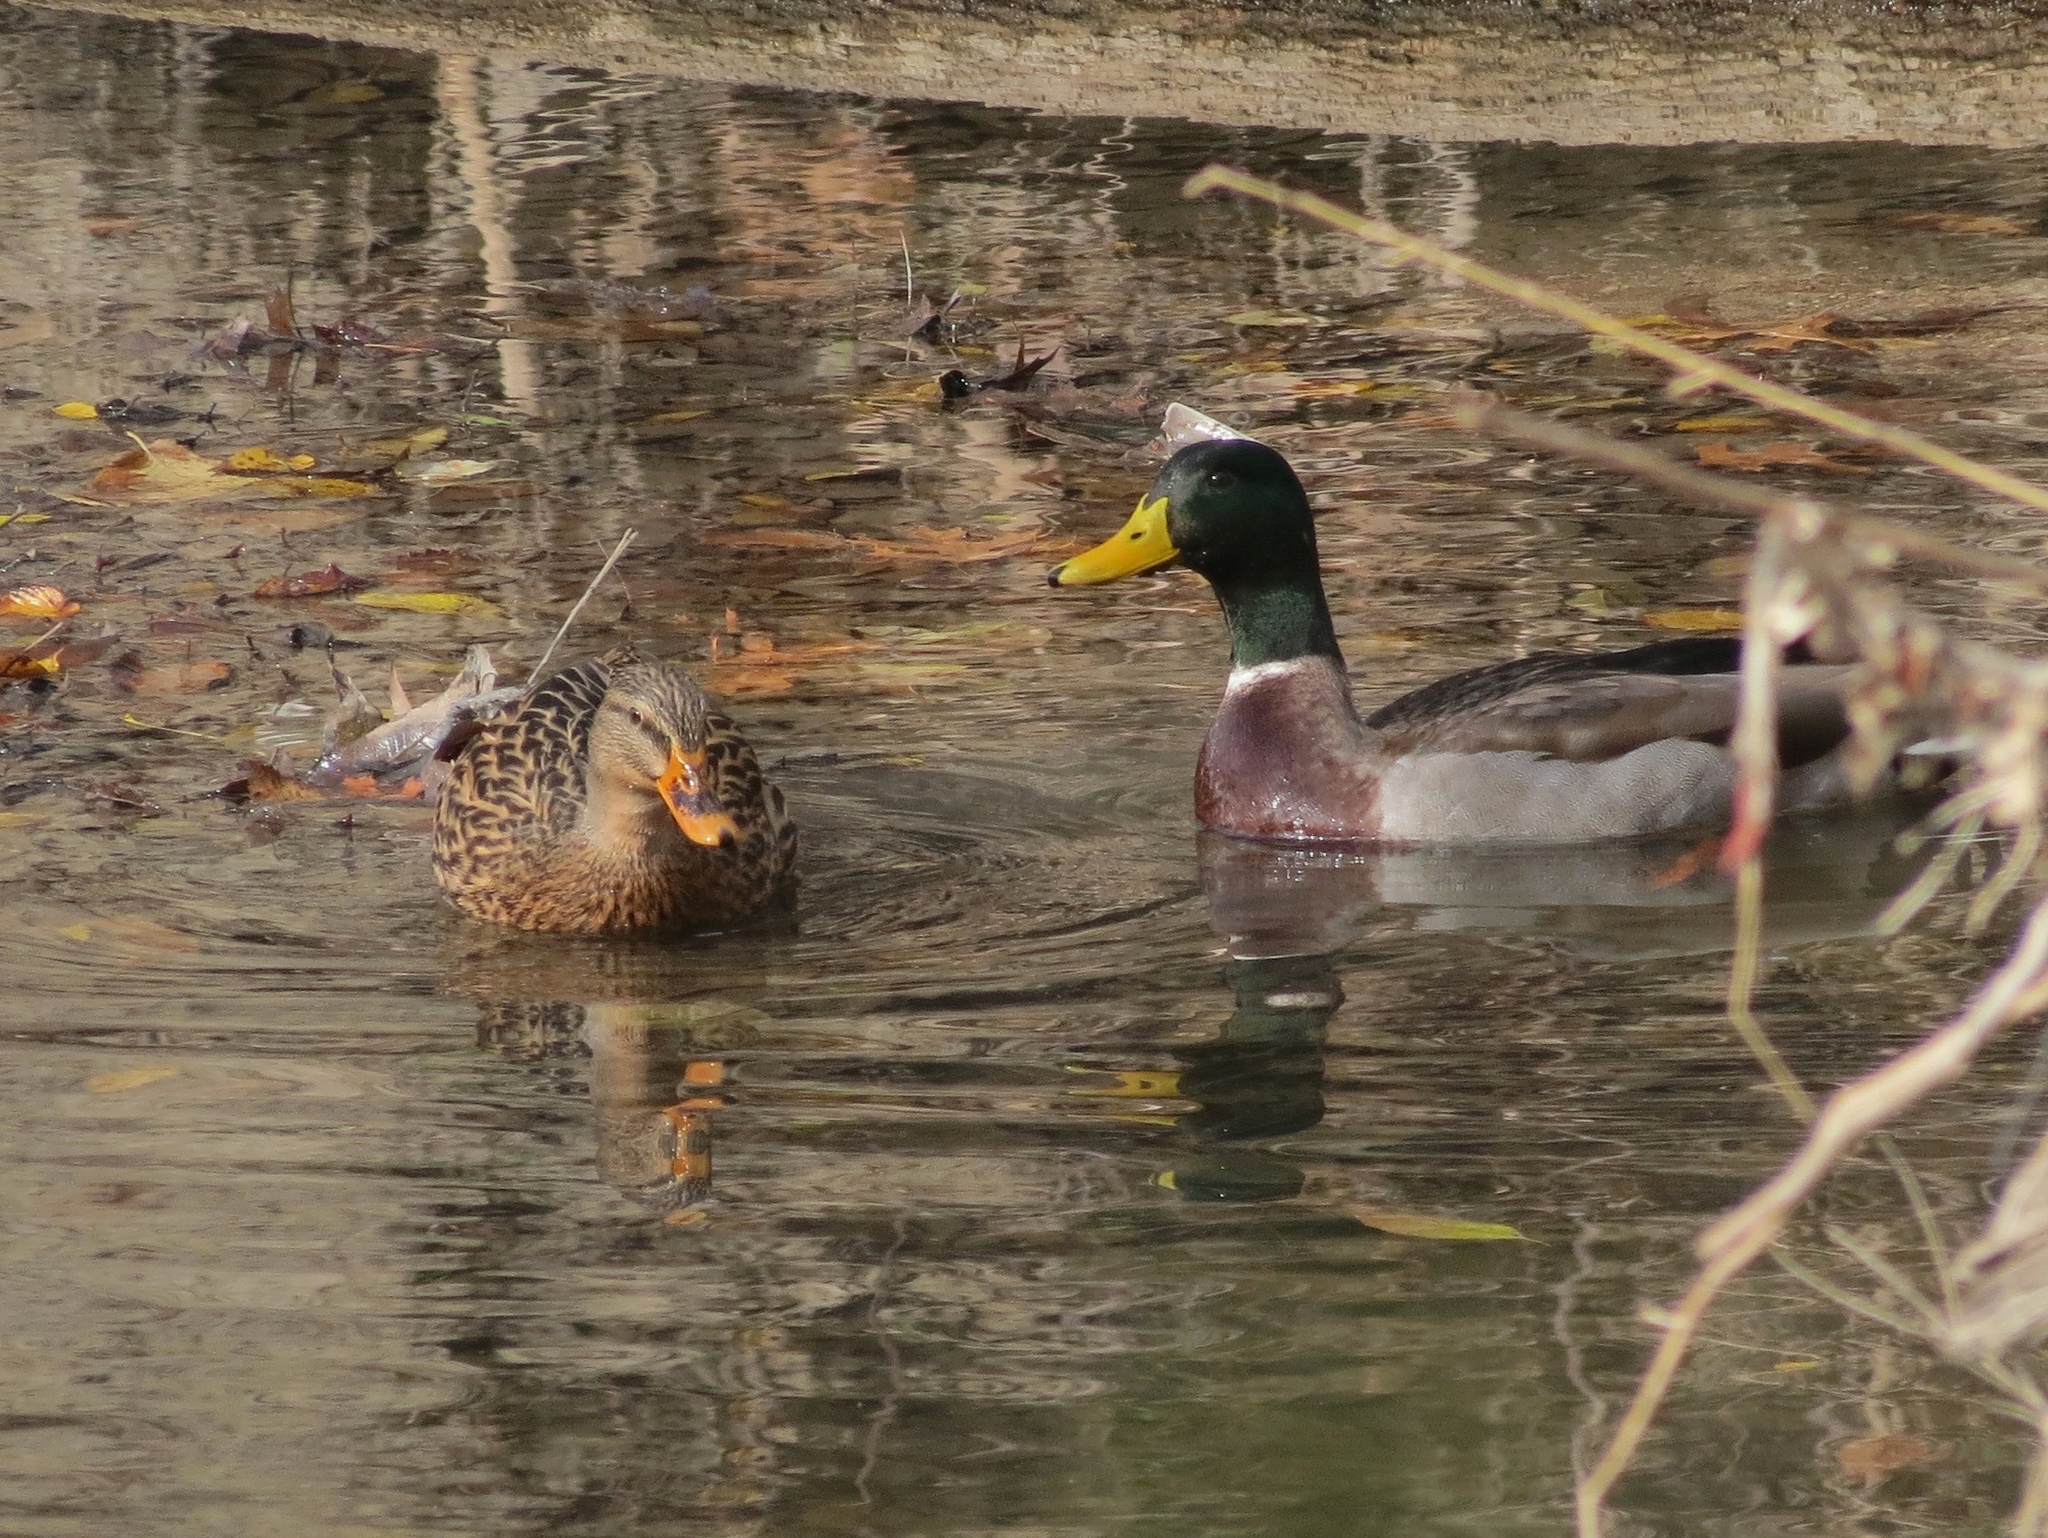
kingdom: Animalia
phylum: Chordata
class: Aves
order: Anseriformes
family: Anatidae
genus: Anas
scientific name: Anas platyrhynchos
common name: Mallard
